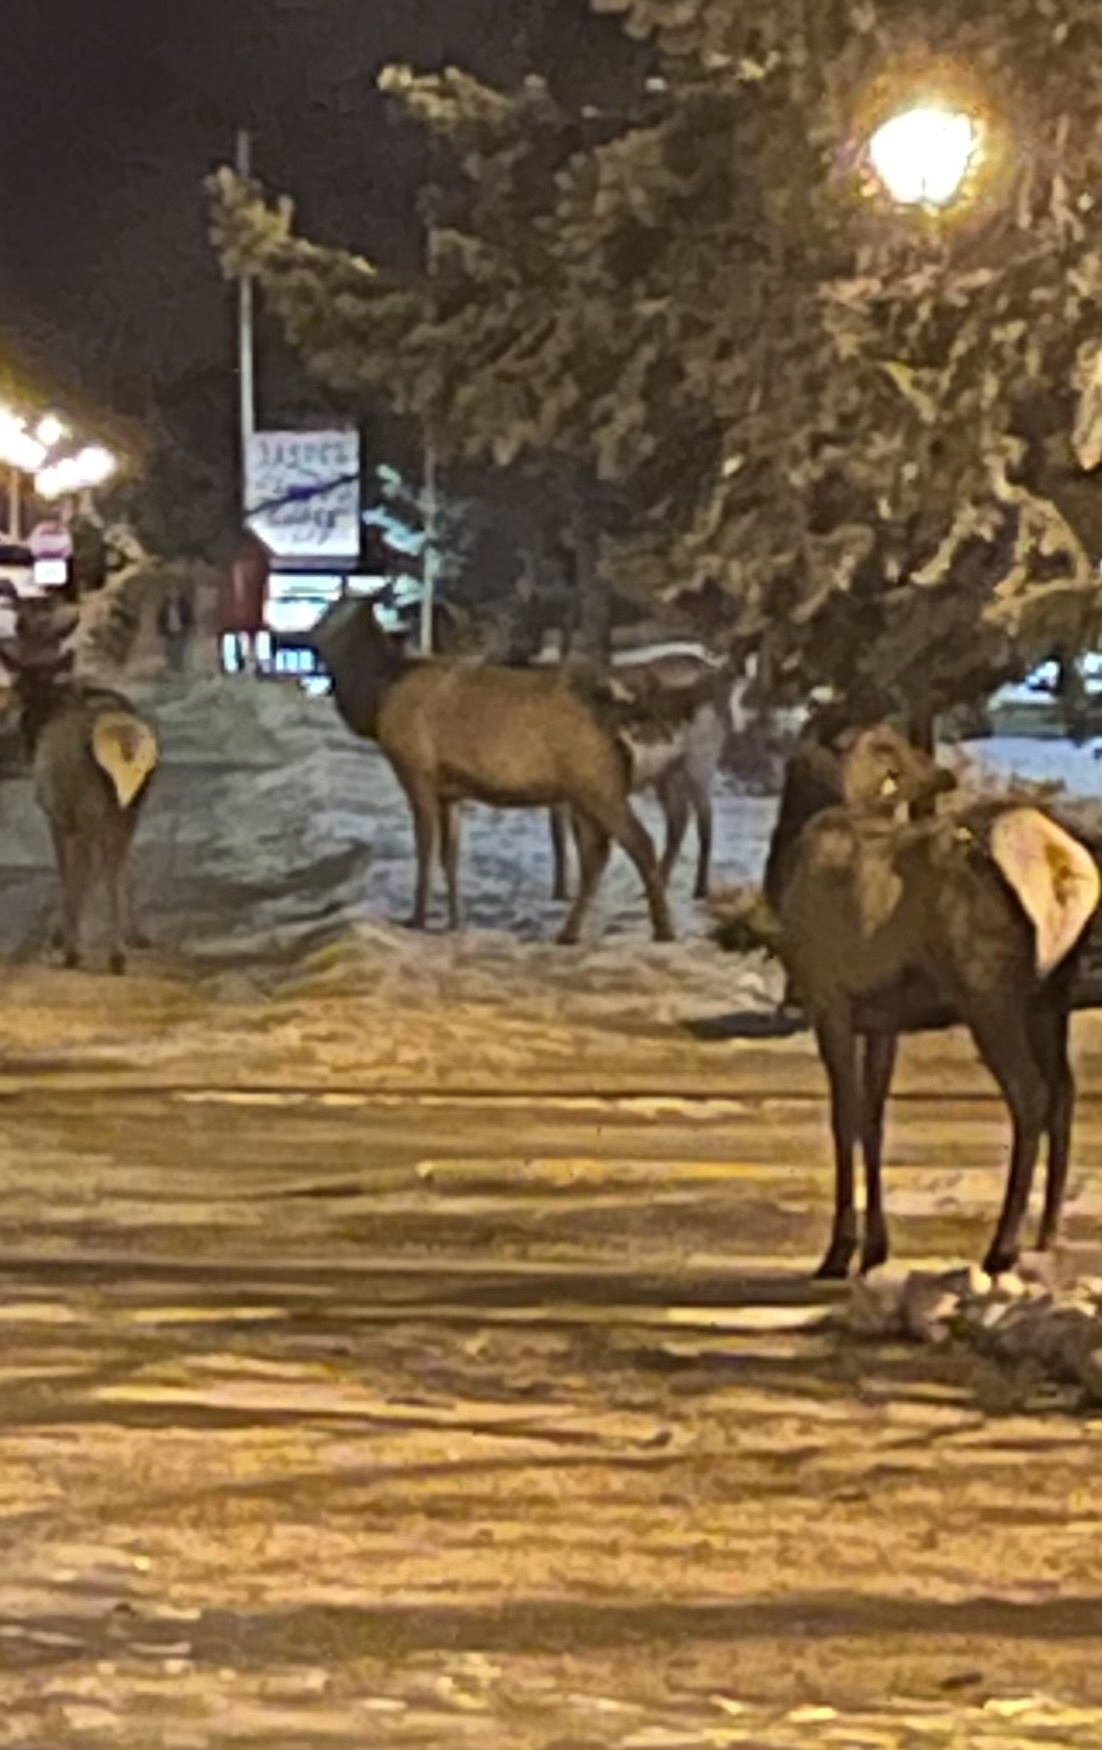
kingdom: Animalia
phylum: Chordata
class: Mammalia
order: Artiodactyla
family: Cervidae
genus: Cervus
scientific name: Cervus elaphus
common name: Red deer
